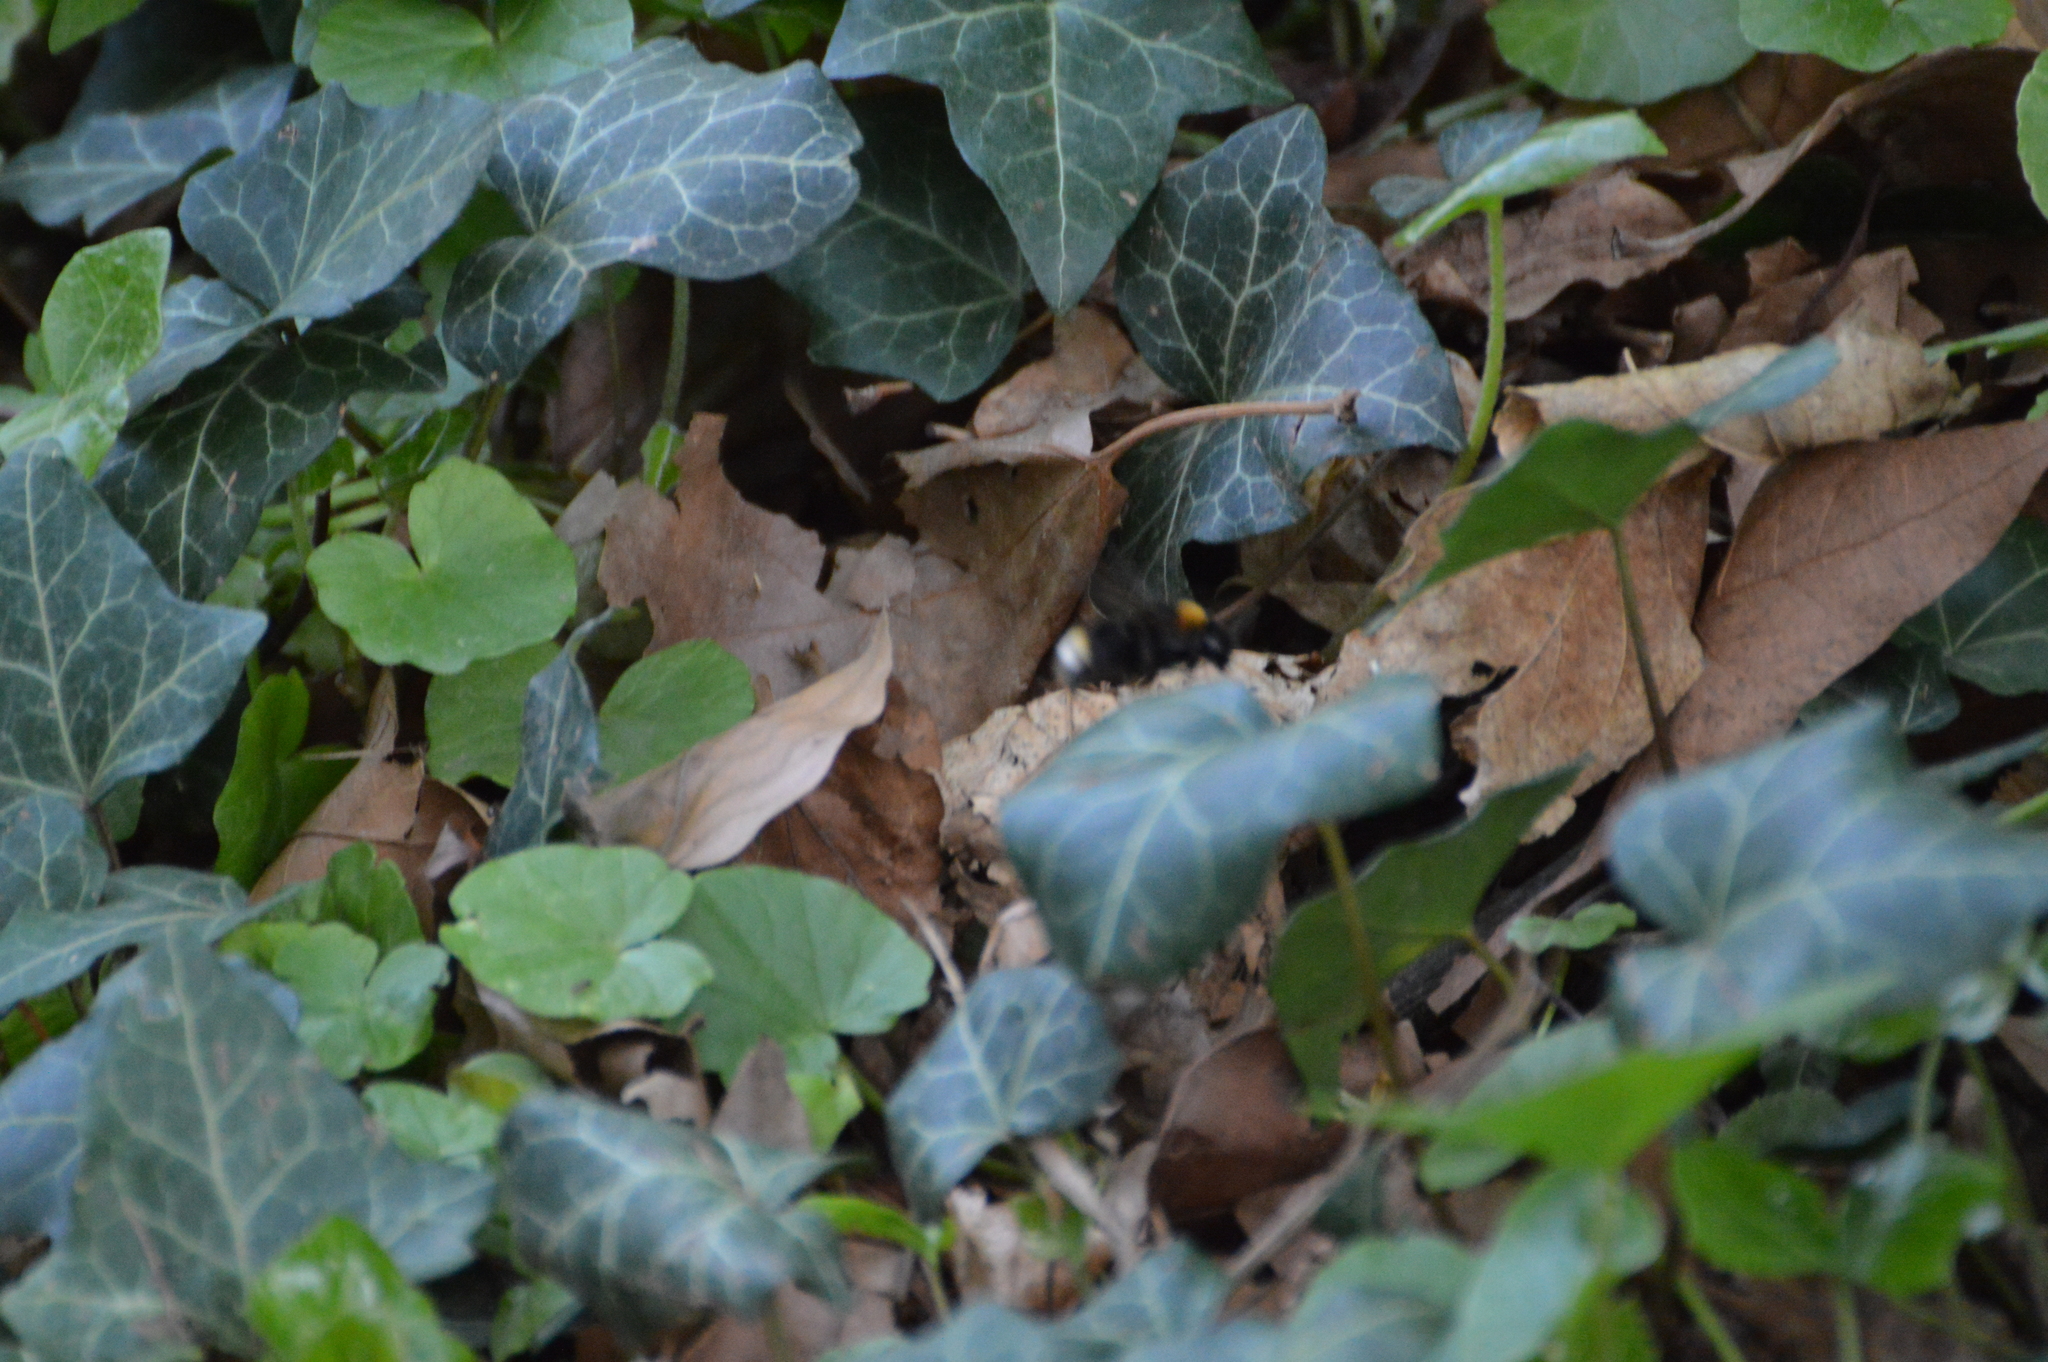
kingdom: Animalia
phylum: Arthropoda
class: Insecta
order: Hymenoptera
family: Apidae
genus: Bombus
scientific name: Bombus vestalis
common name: Vestal cuckoo bee
